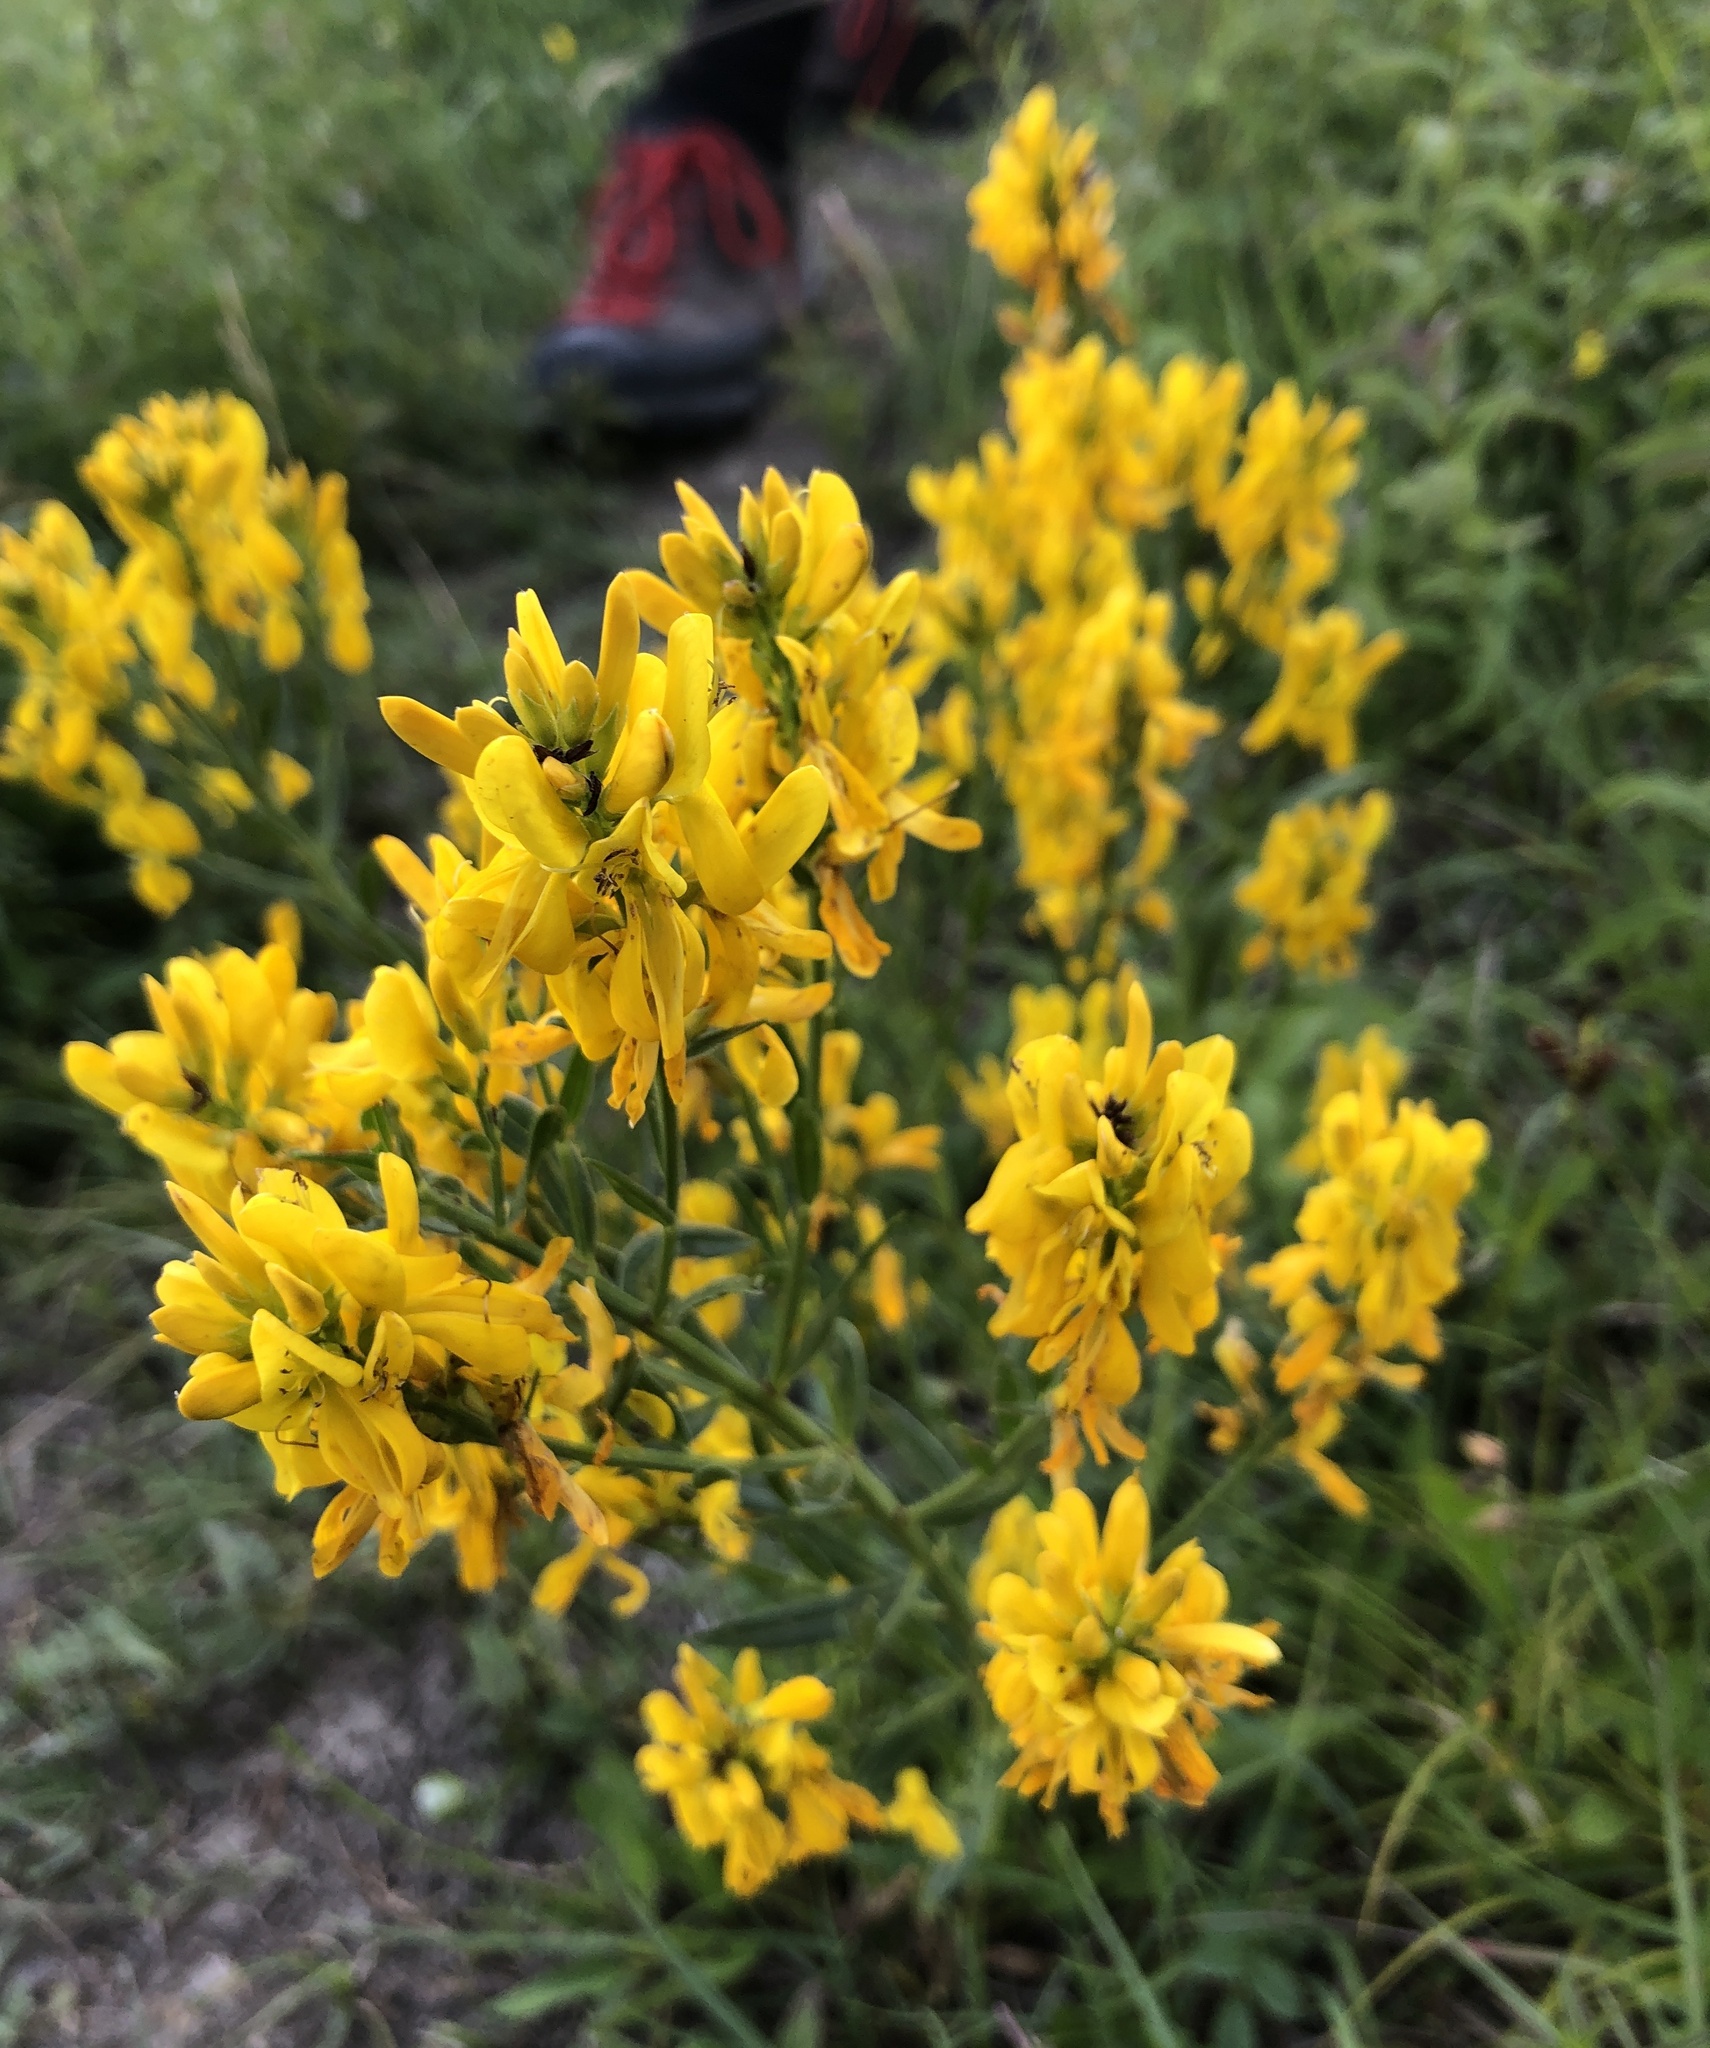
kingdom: Plantae
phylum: Tracheophyta
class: Magnoliopsida
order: Fabales
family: Fabaceae
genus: Genista
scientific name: Genista tinctoria
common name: Dyer's greenweed
